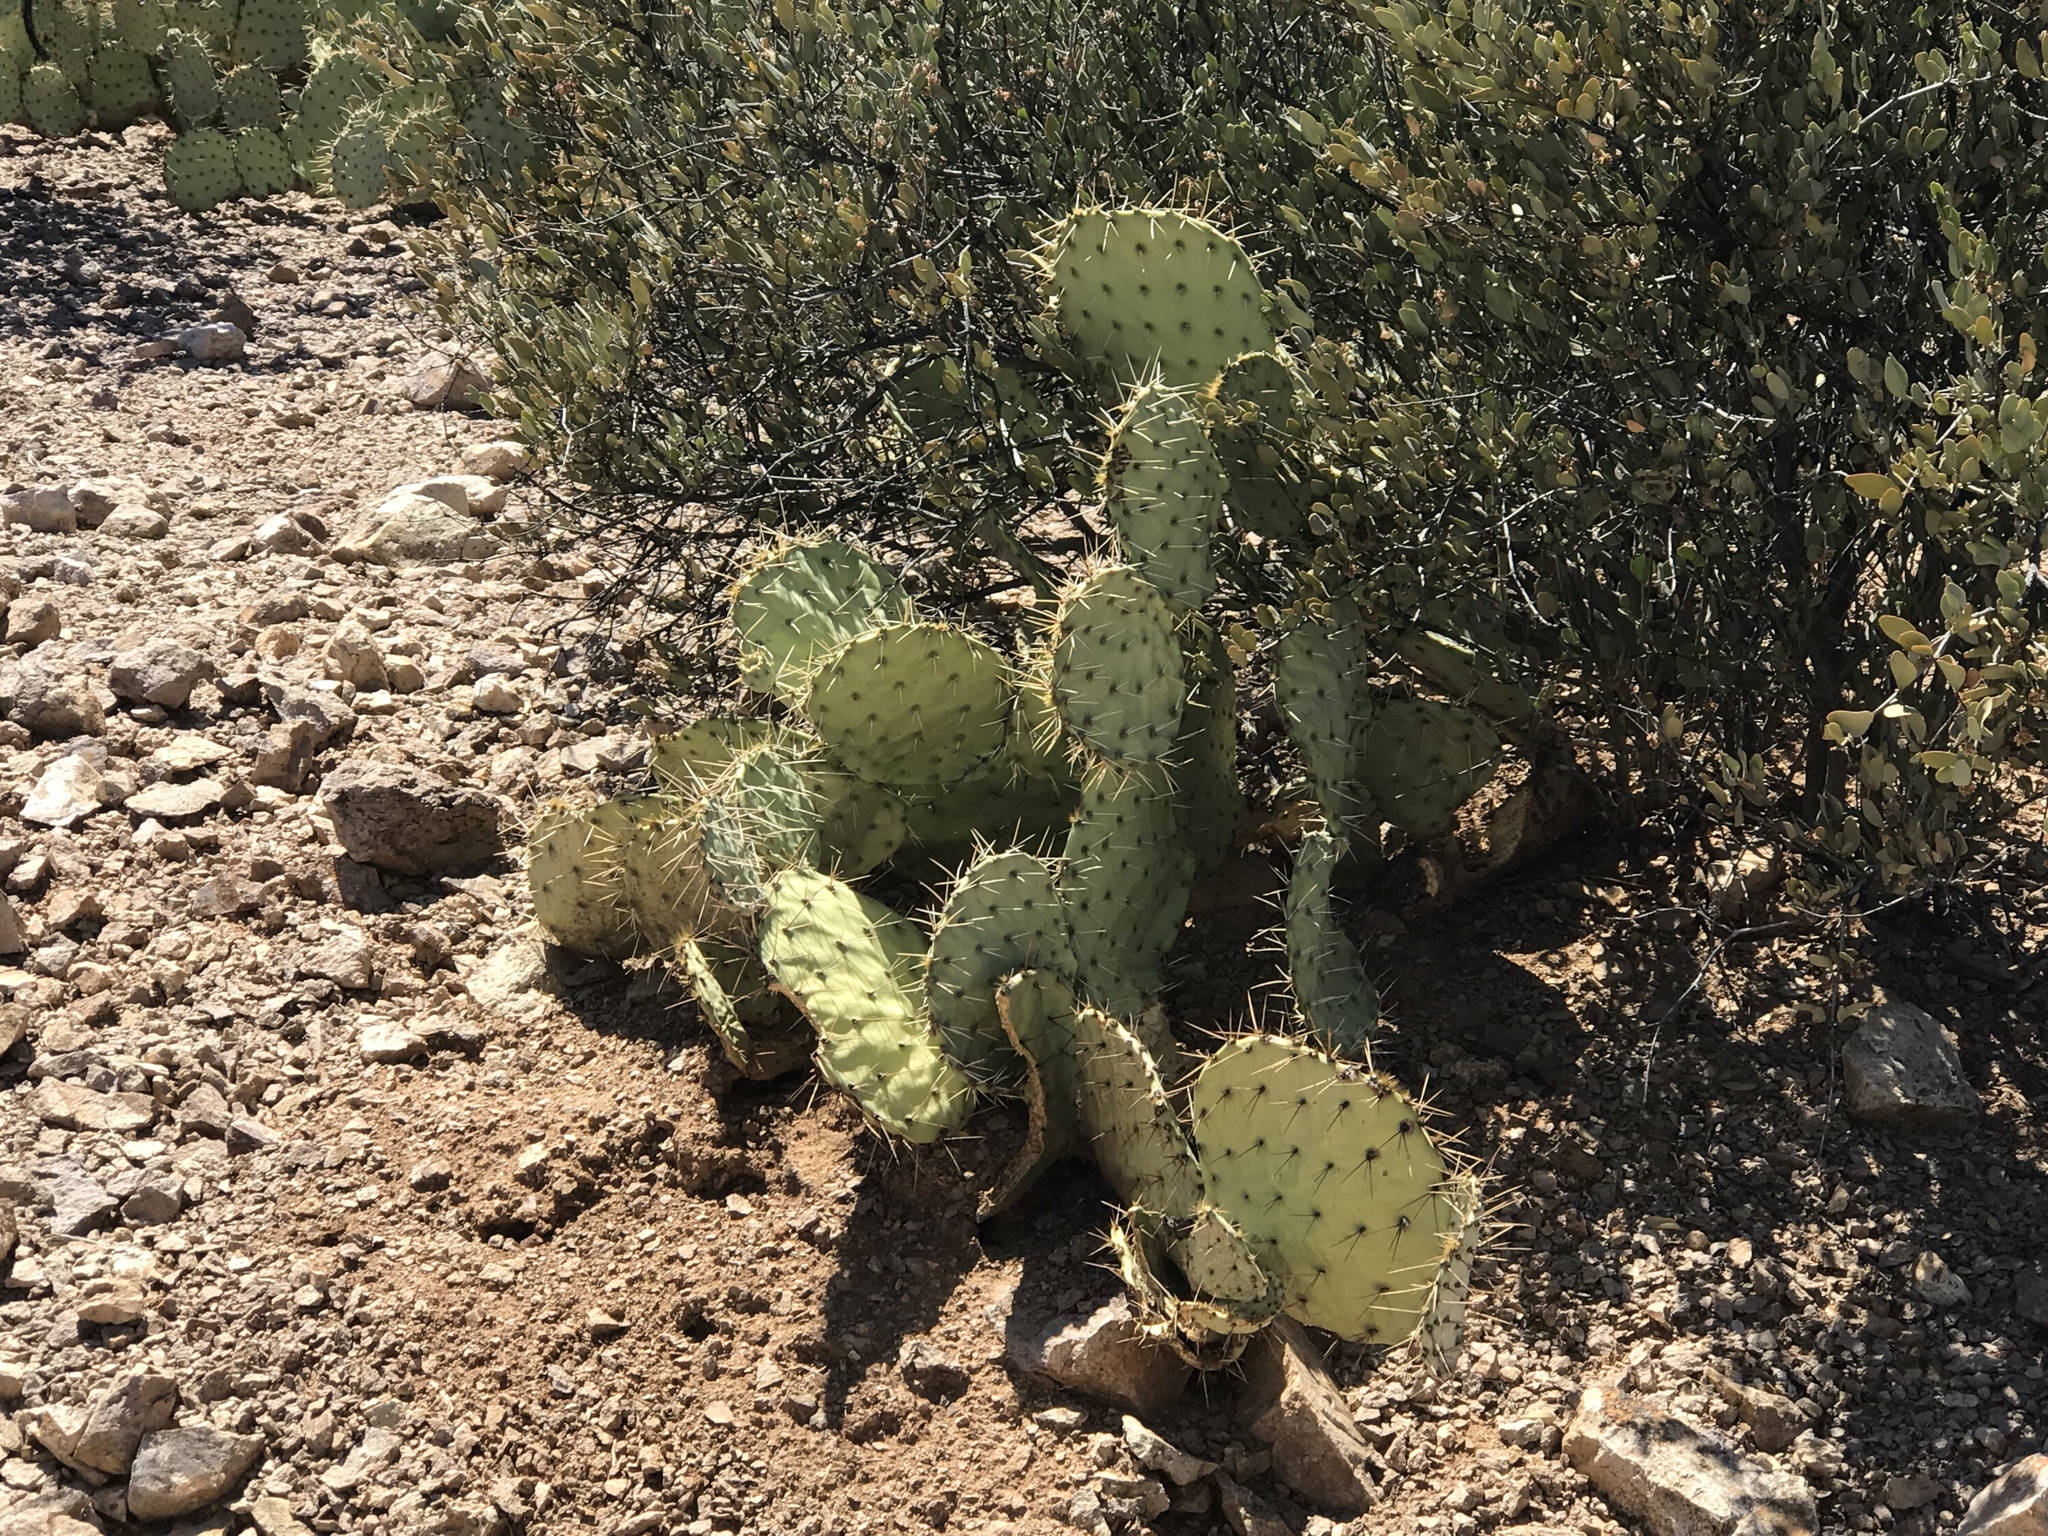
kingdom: Plantae
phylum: Tracheophyta
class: Magnoliopsida
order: Caryophyllales
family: Simmondsiaceae
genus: Simmondsia
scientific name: Simmondsia chinensis
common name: Jojoba
